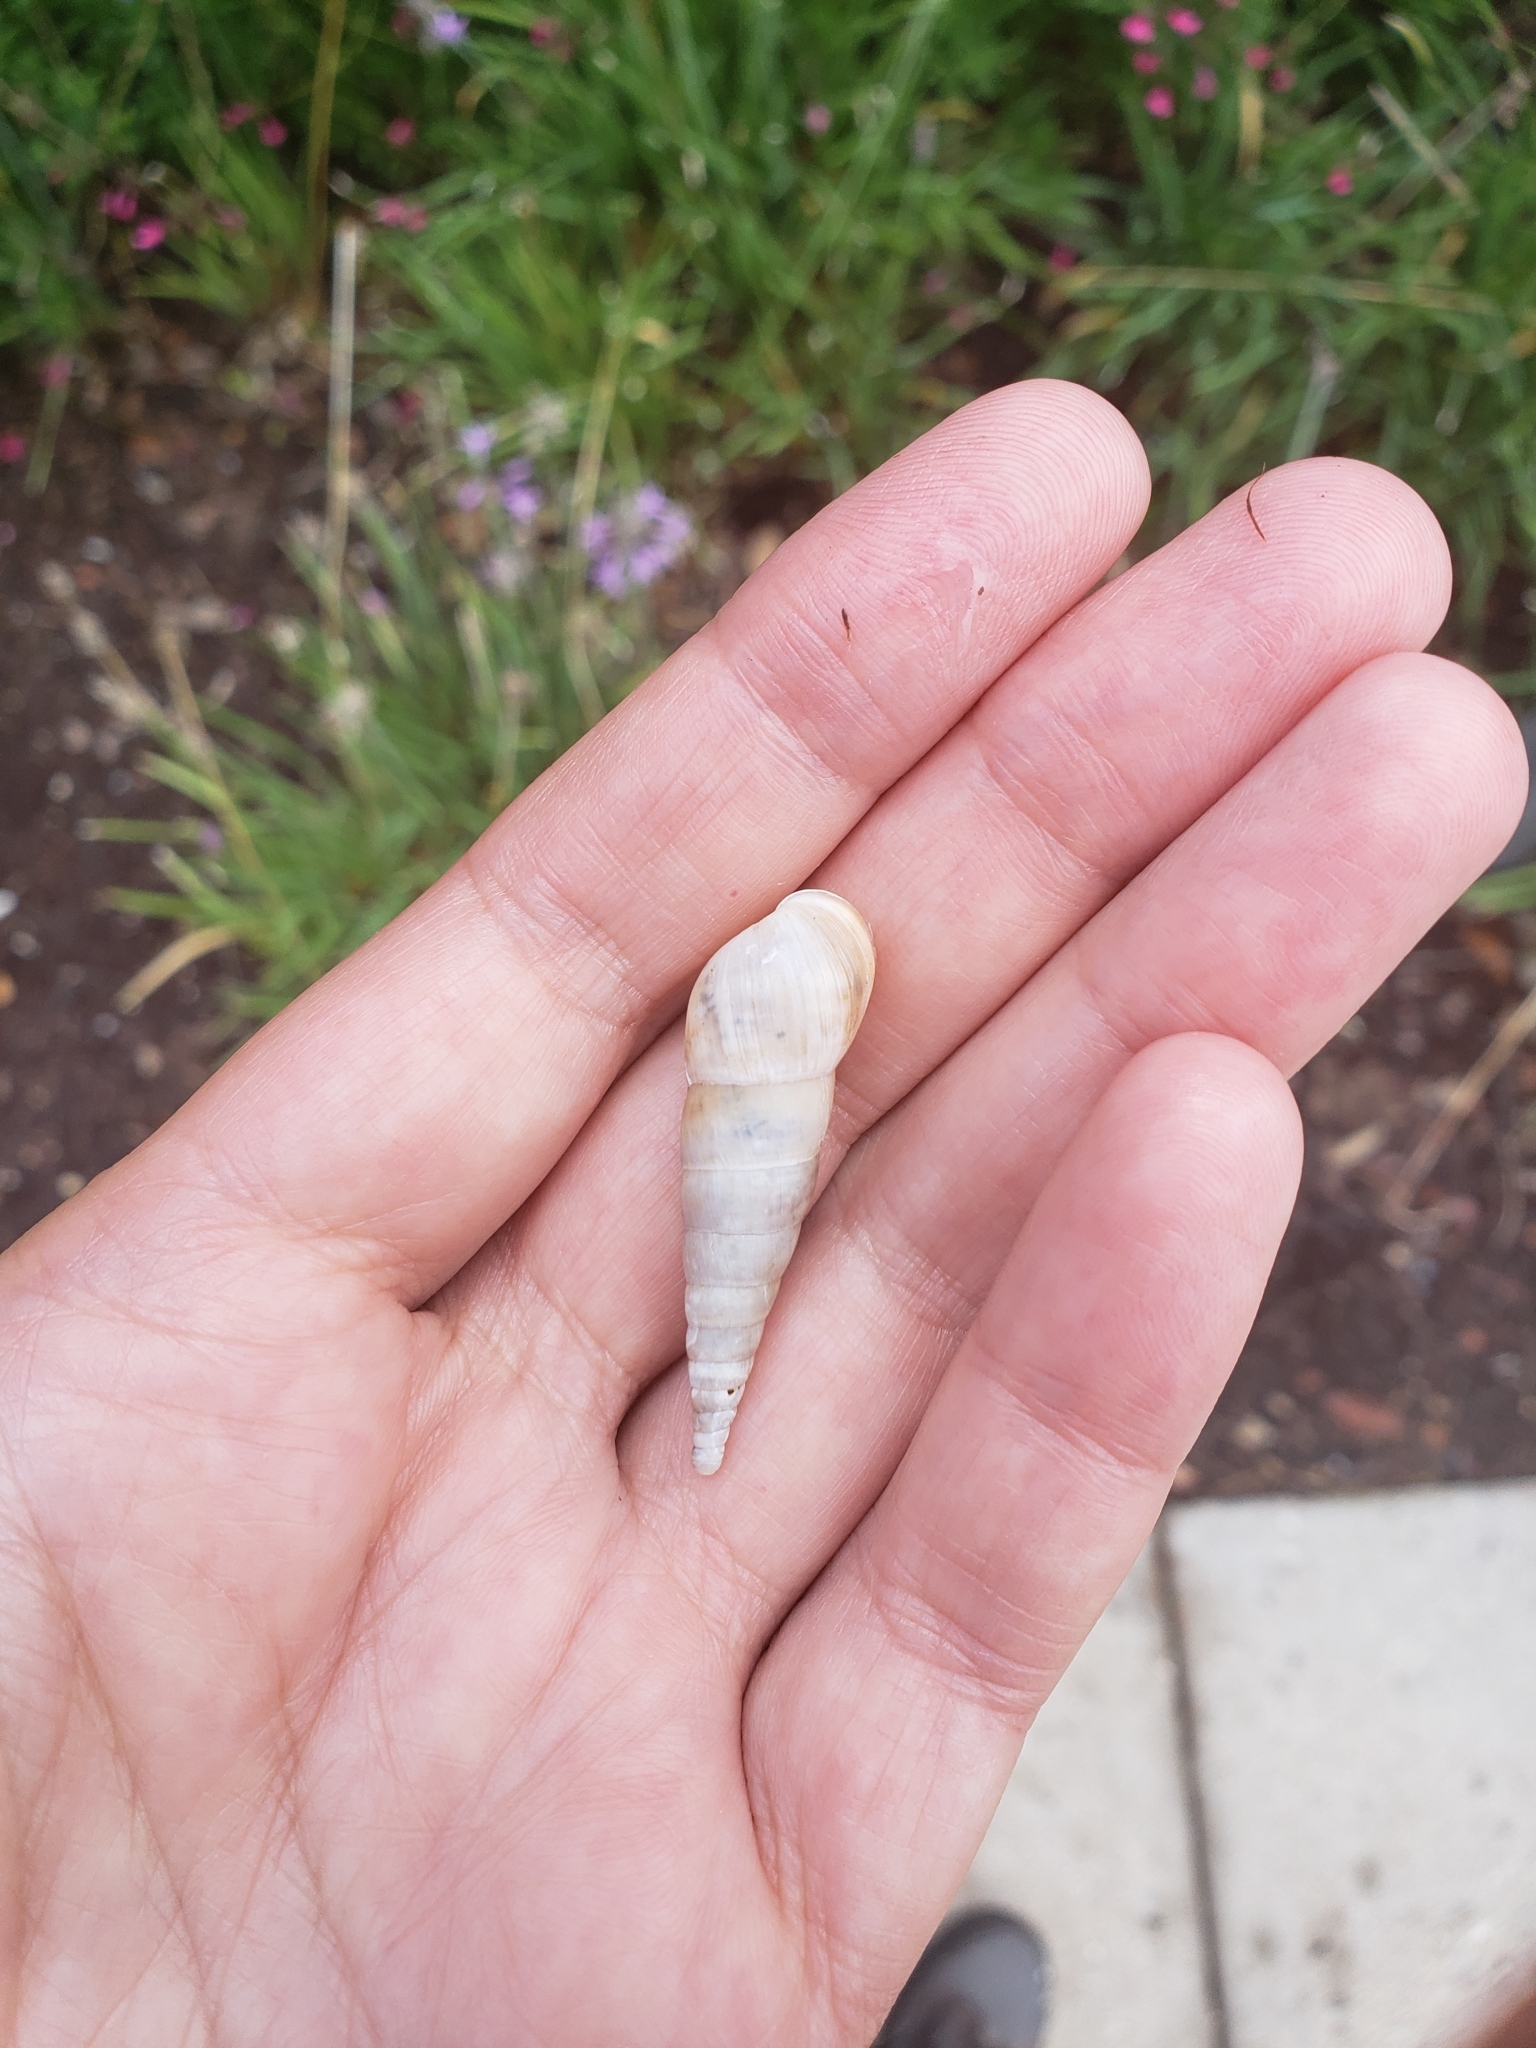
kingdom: Animalia
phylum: Mollusca
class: Gastropoda
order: Stylommatophora
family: Achatinidae
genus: Rumina
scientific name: Rumina decollata
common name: Decollate snail
